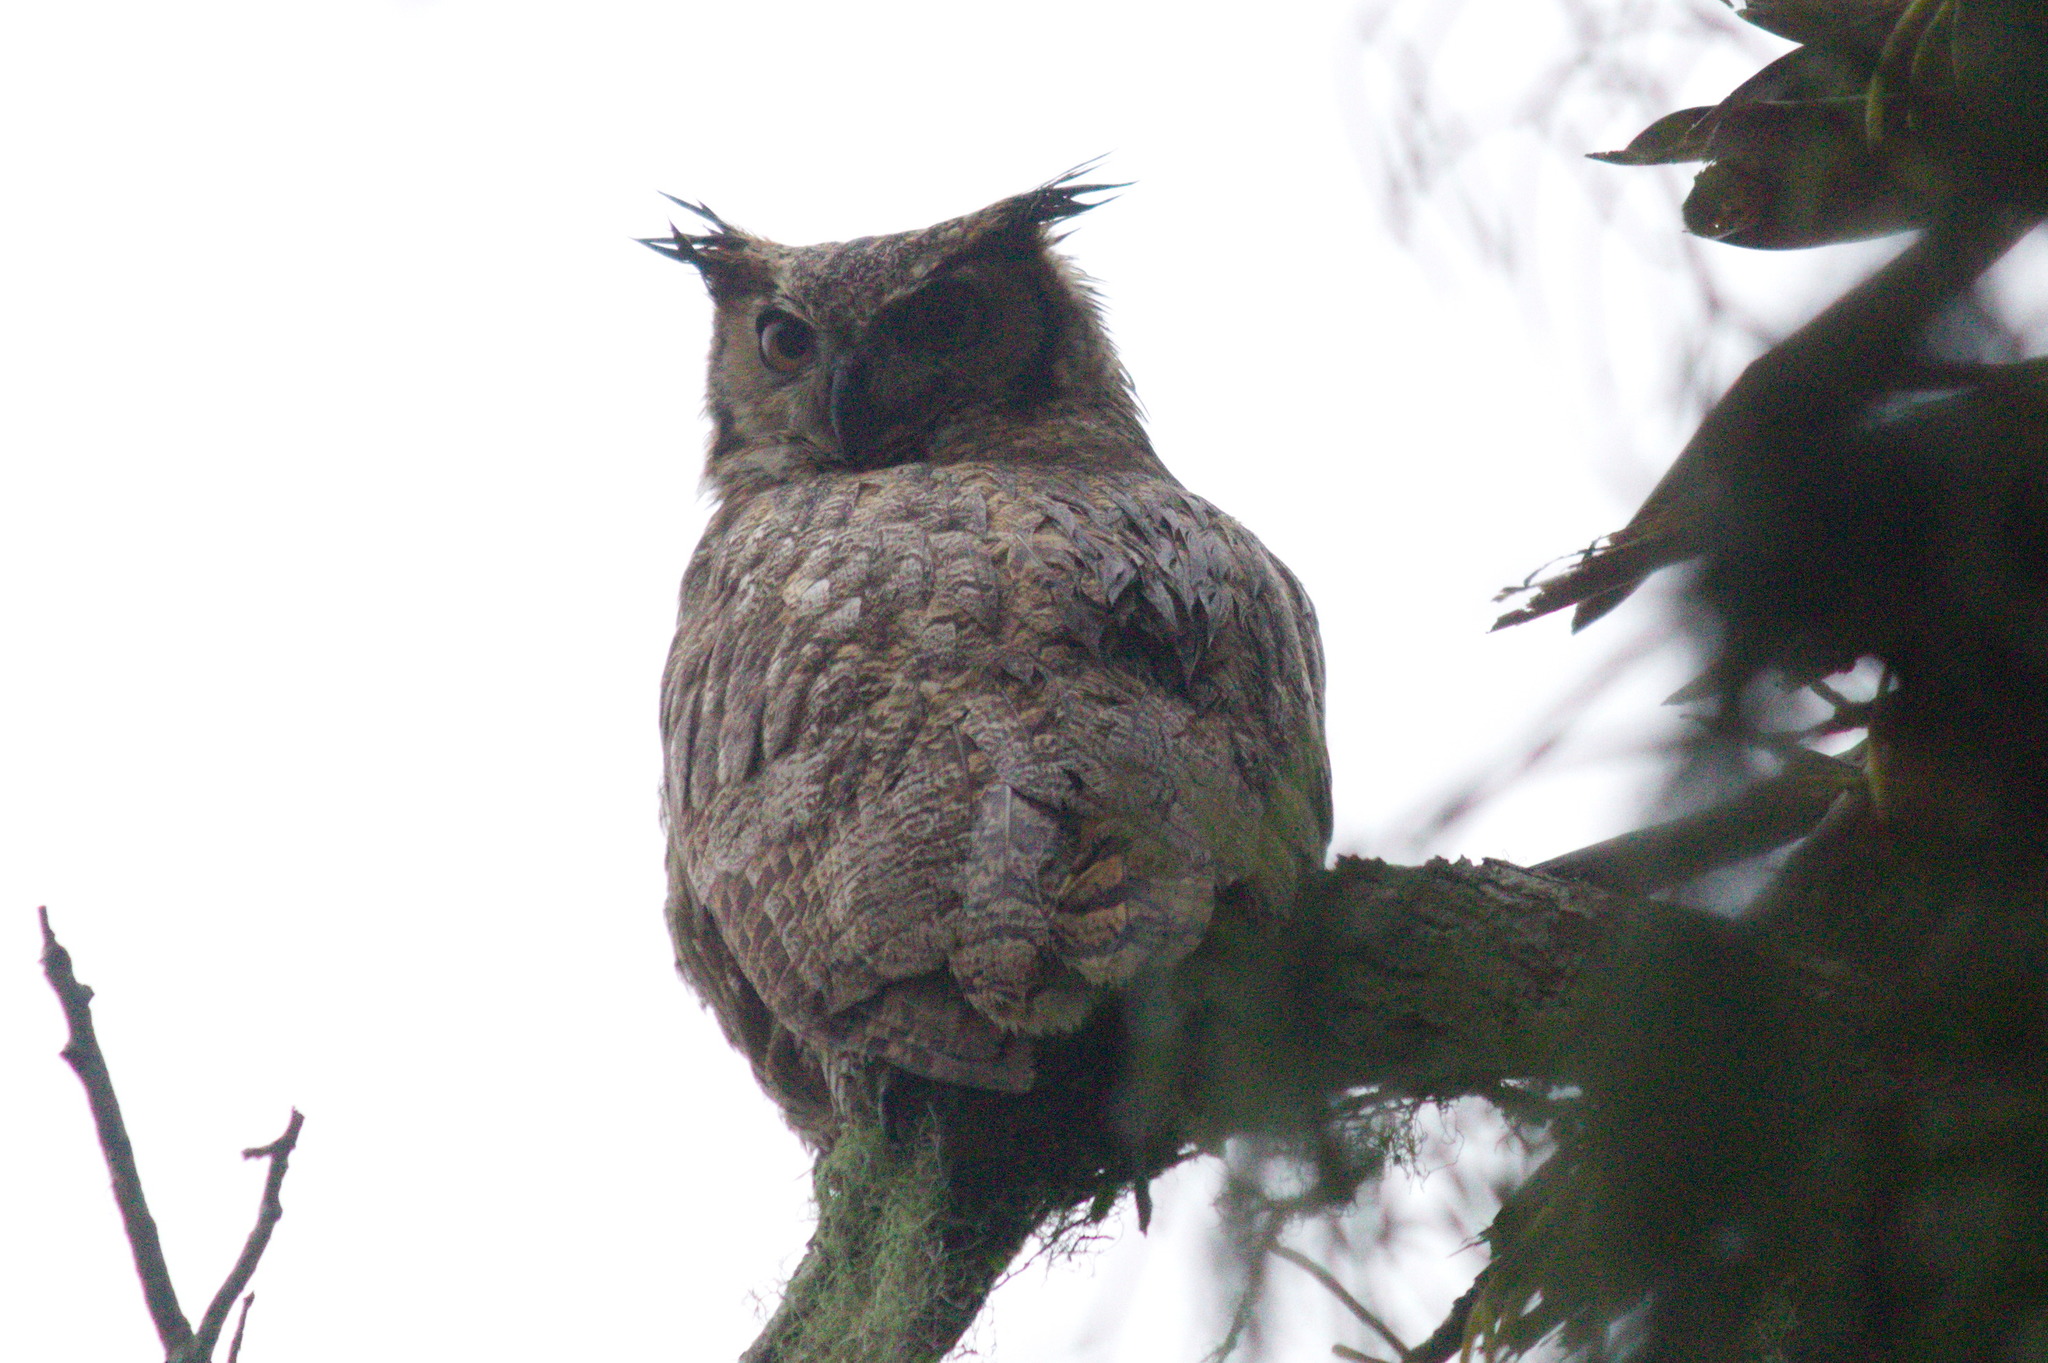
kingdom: Animalia
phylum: Chordata
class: Aves
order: Strigiformes
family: Strigidae
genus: Bubo
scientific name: Bubo virginianus
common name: Great horned owl
